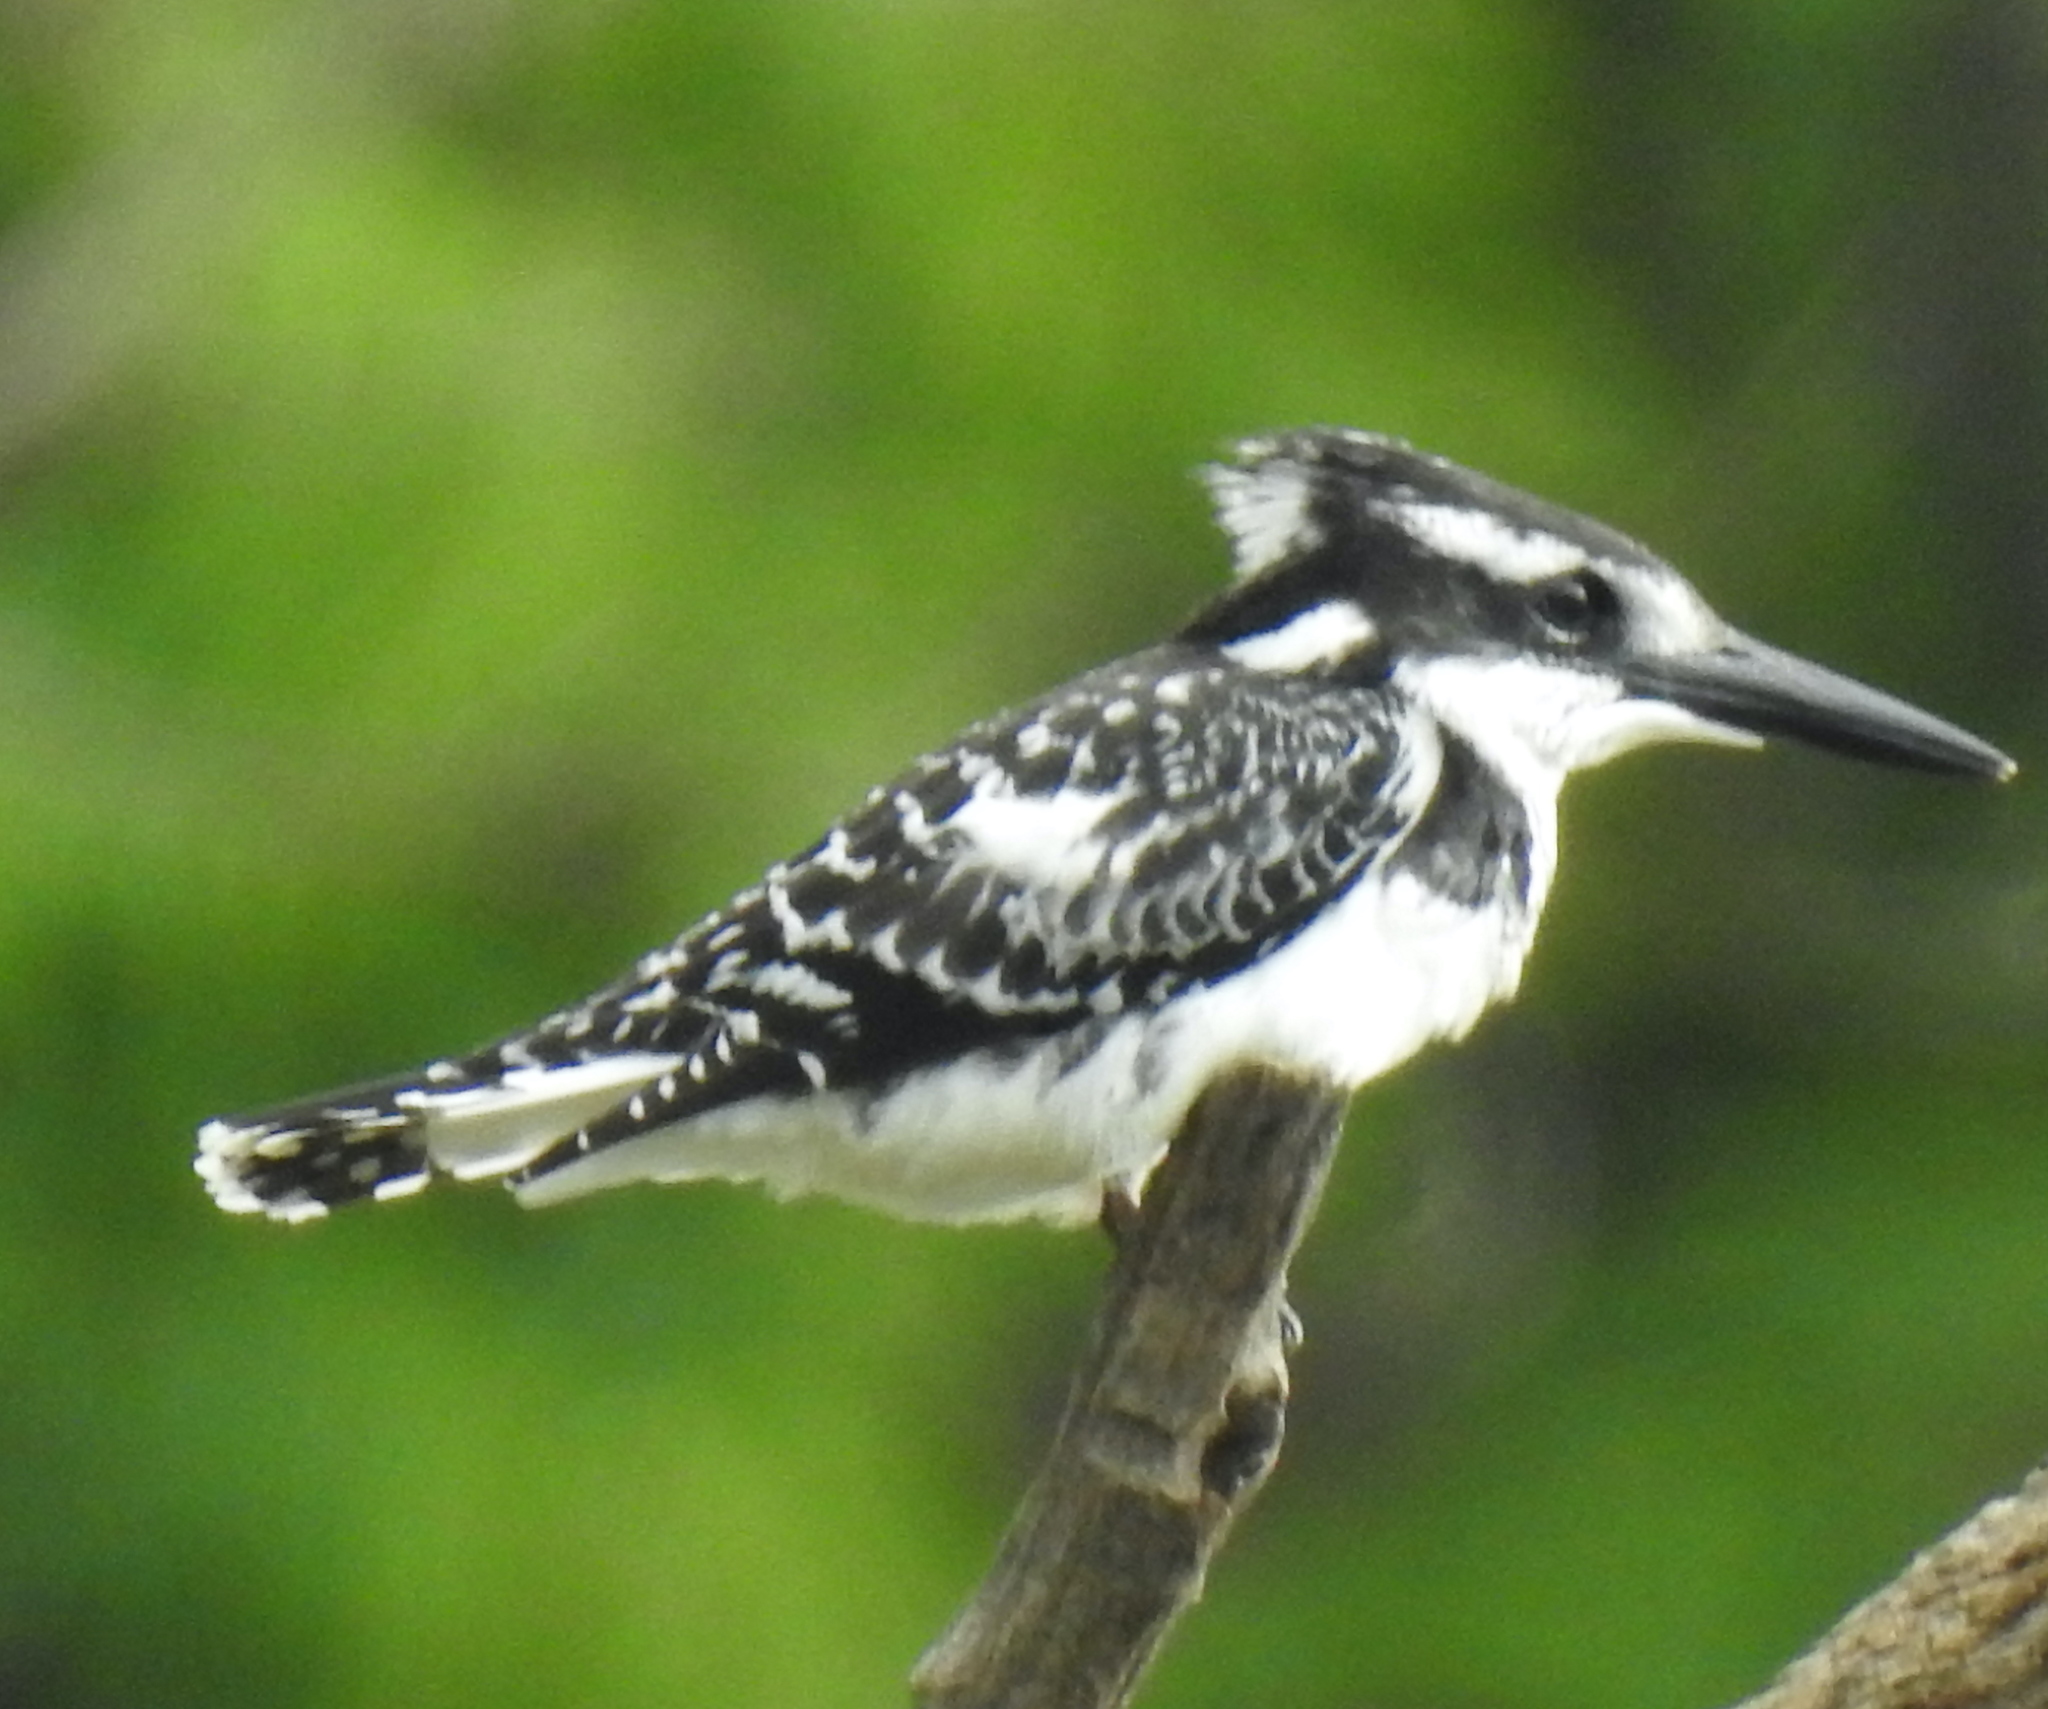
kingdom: Animalia
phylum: Chordata
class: Aves
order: Coraciiformes
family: Alcedinidae
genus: Ceryle
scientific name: Ceryle rudis
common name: Pied kingfisher
